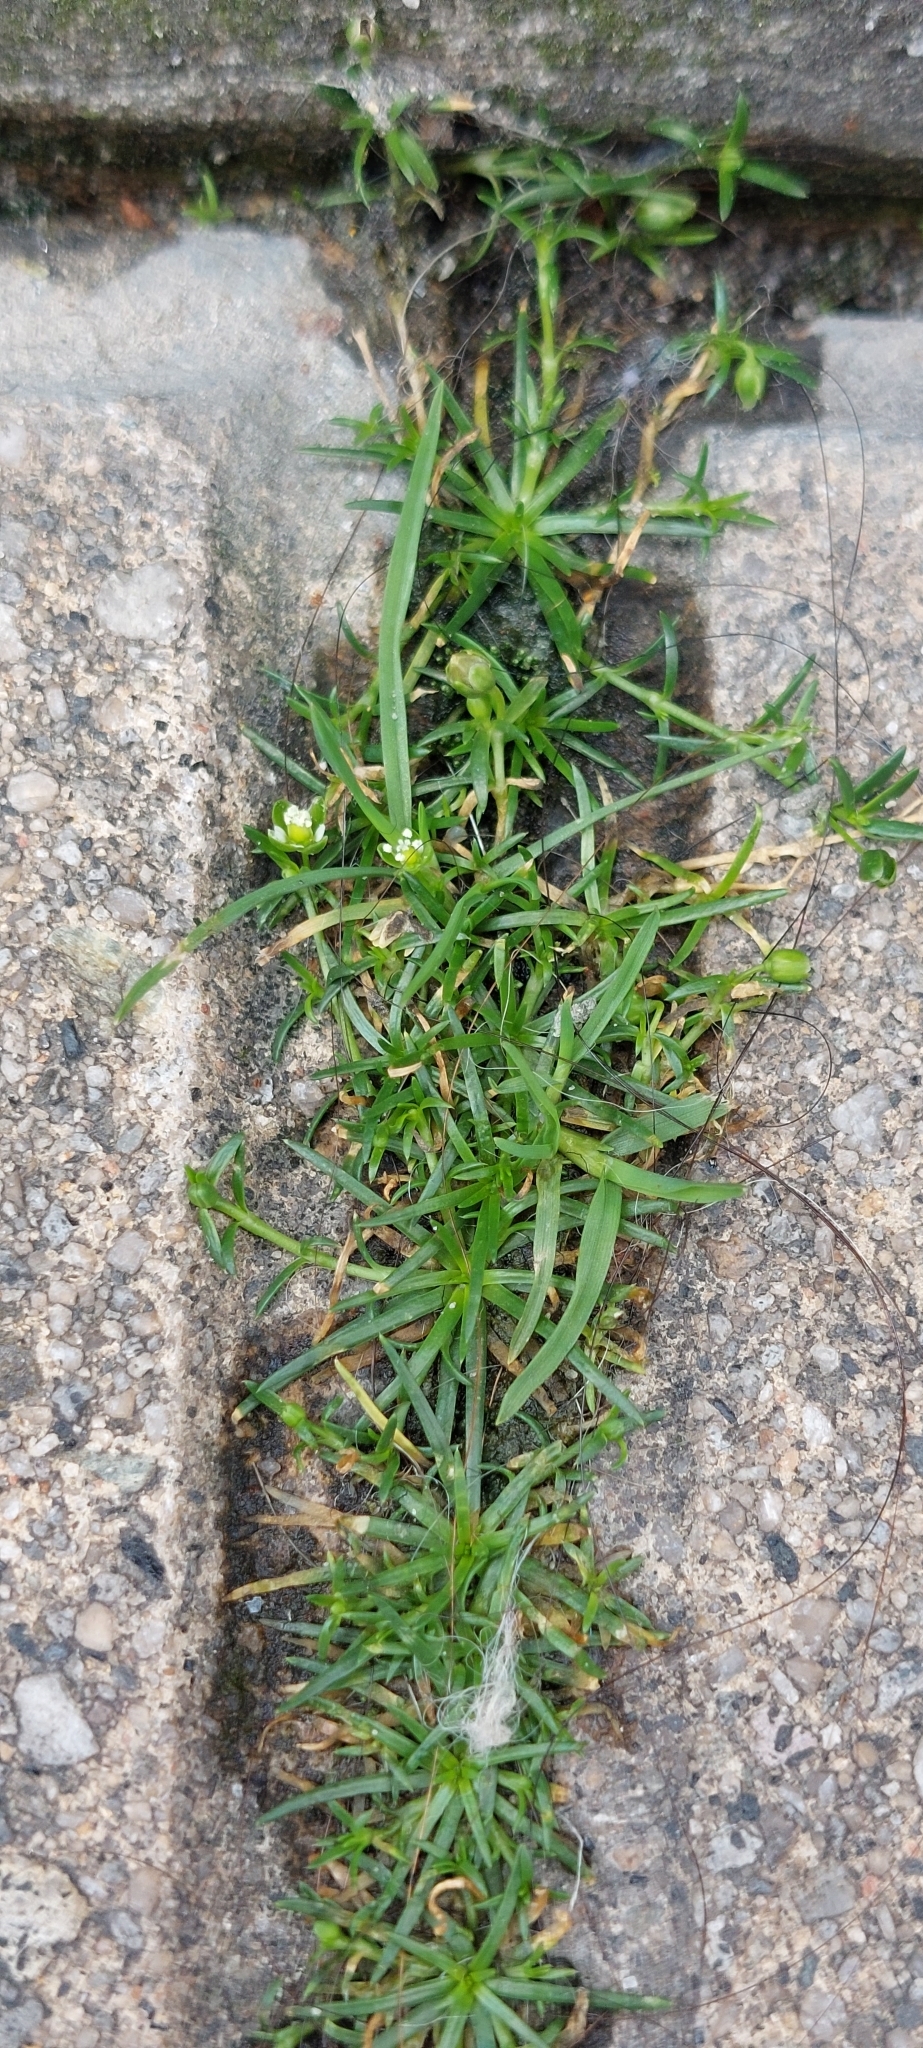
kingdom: Plantae
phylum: Tracheophyta
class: Magnoliopsida
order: Caryophyllales
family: Caryophyllaceae
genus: Sagina
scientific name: Sagina procumbens
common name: Procumbent pearlwort
